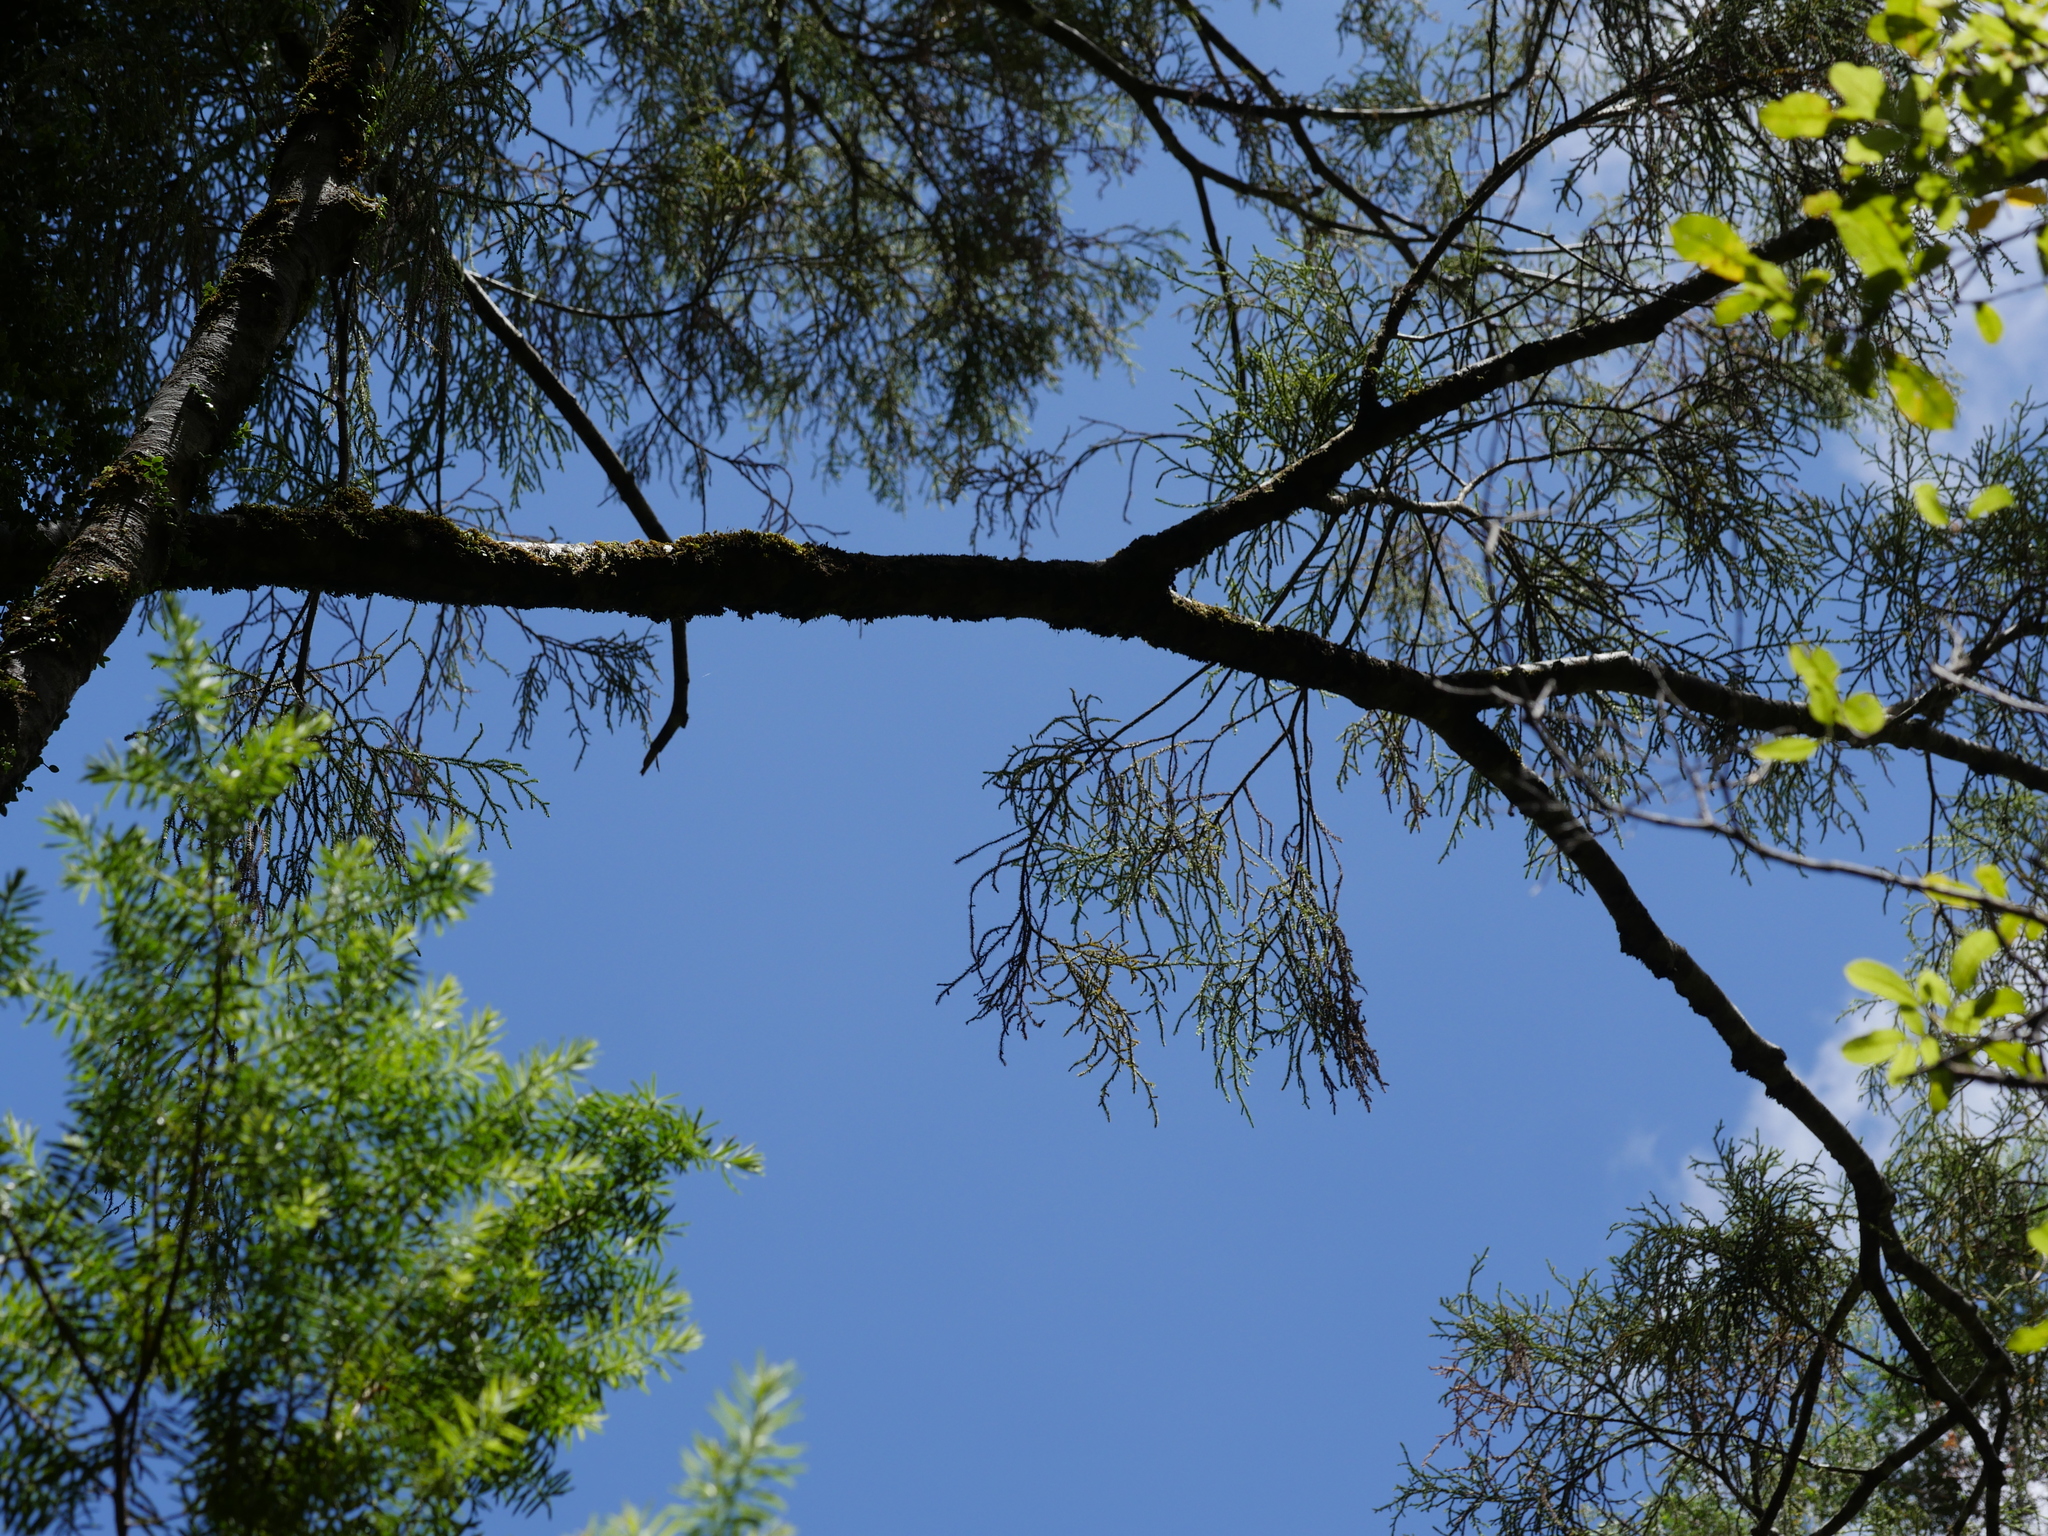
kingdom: Plantae
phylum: Tracheophyta
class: Pinopsida
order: Pinales
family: Podocarpaceae
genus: Manoao
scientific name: Manoao colensoi
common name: Silver pine
